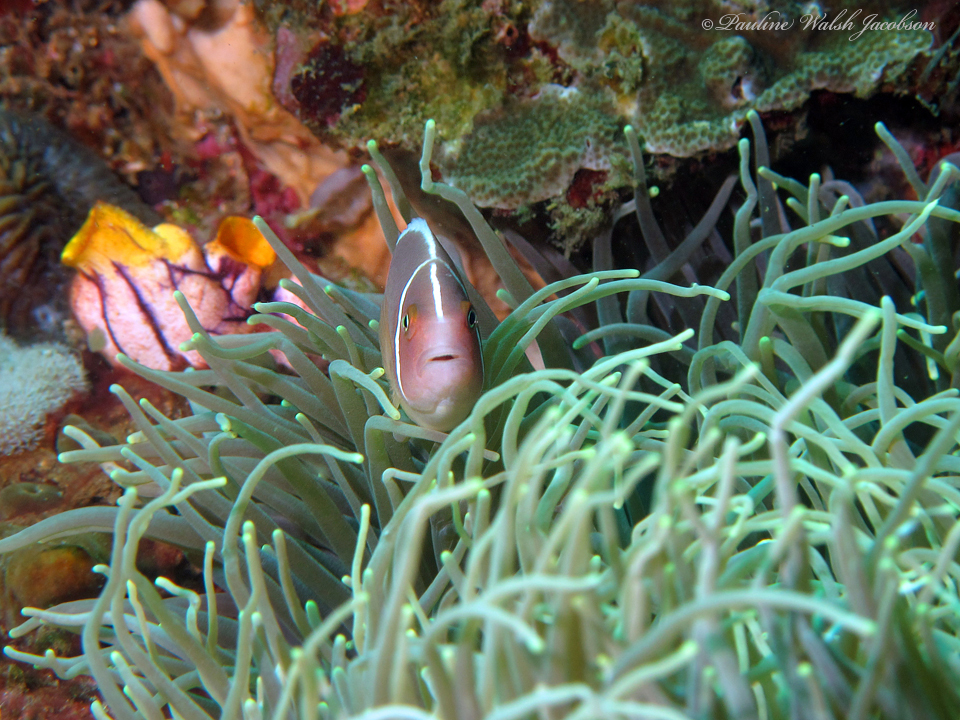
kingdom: Animalia
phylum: Chordata
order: Perciformes
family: Pomacentridae
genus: Amphiprion
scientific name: Amphiprion perideraion
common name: Pink anemonefish
